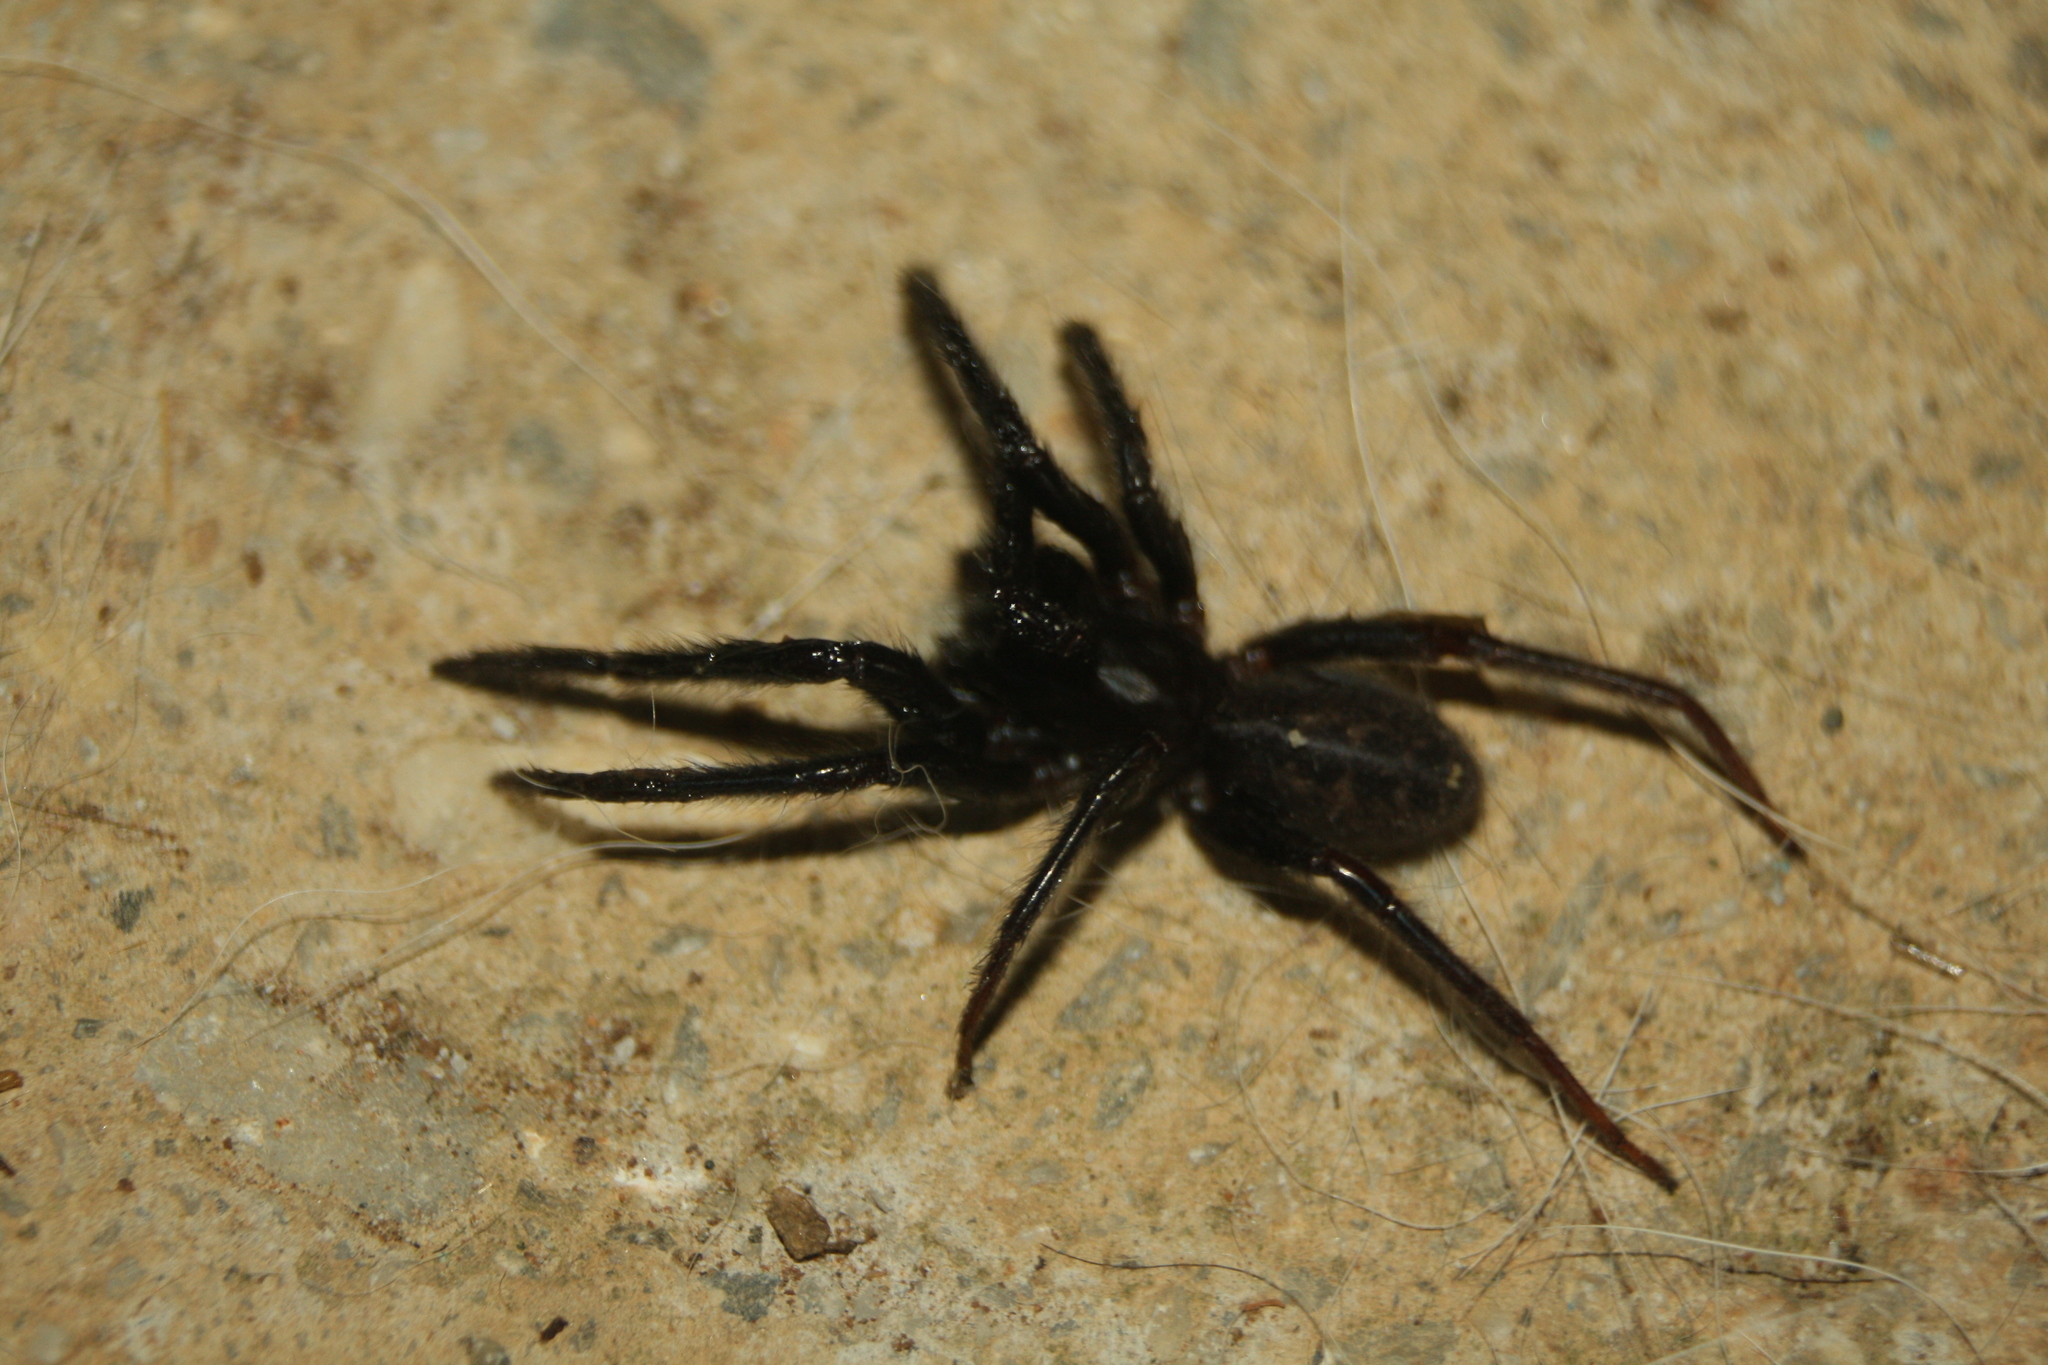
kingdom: Animalia
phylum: Arthropoda
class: Arachnida
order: Araneae
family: Segestriidae
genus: Segestria
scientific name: Segestria florentina
